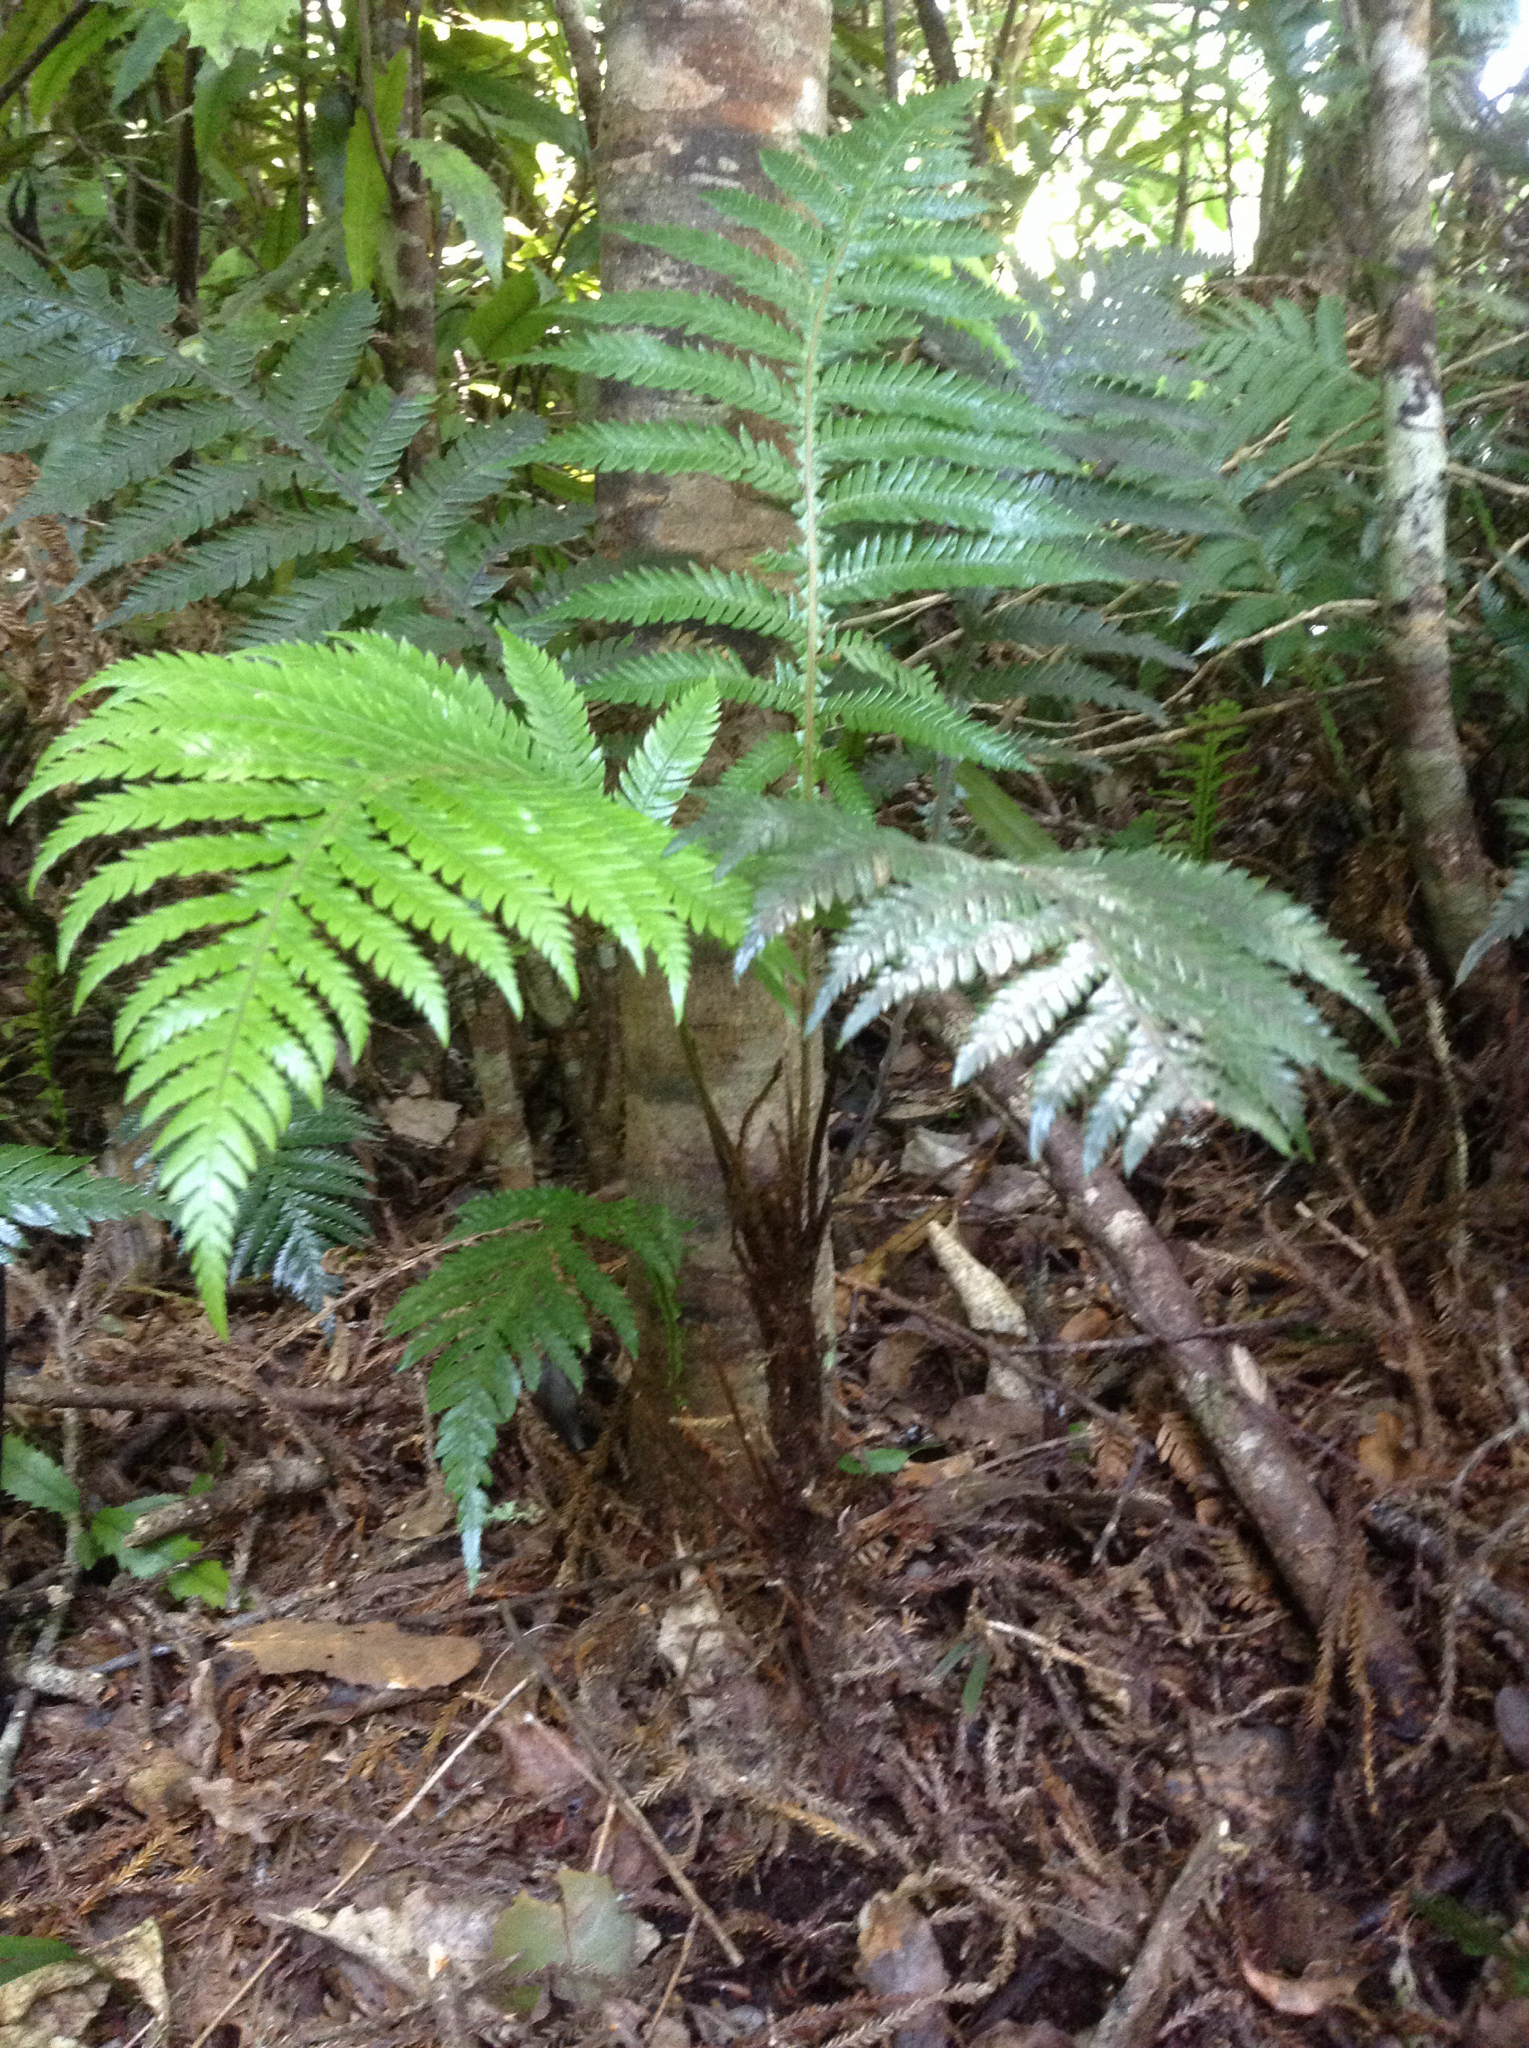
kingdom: Plantae
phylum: Tracheophyta
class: Polypodiopsida
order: Polypodiales
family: Blechnaceae
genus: Diploblechnum
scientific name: Diploblechnum fraseri
